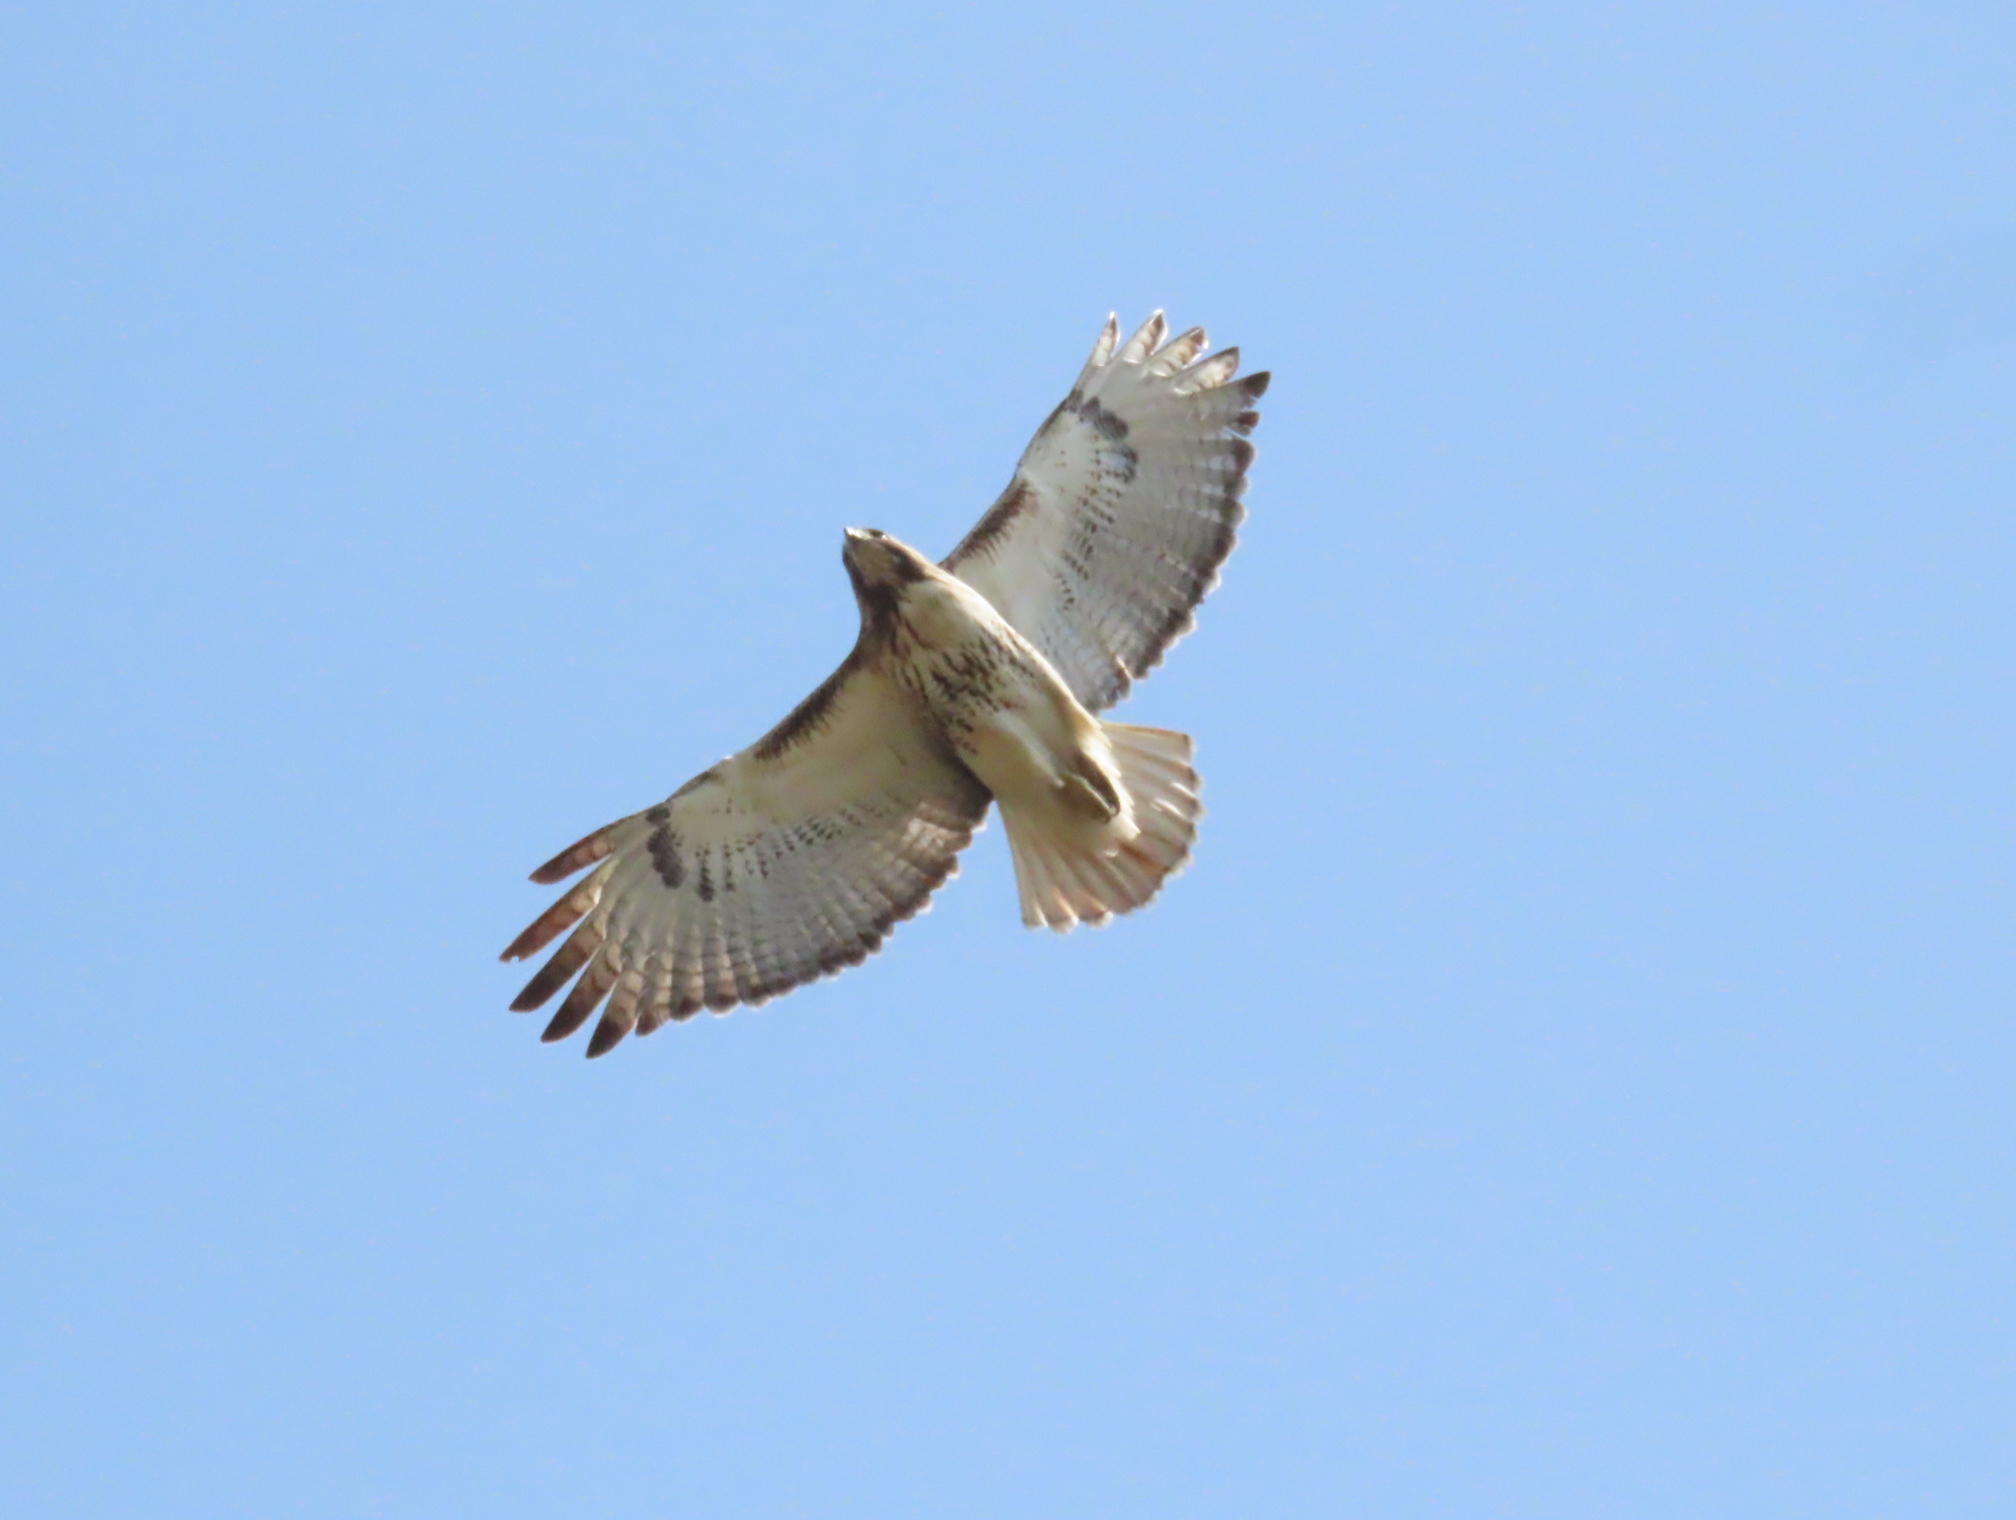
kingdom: Animalia
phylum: Chordata
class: Aves
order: Accipitriformes
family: Accipitridae
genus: Buteo
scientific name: Buteo jamaicensis
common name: Red-tailed hawk
